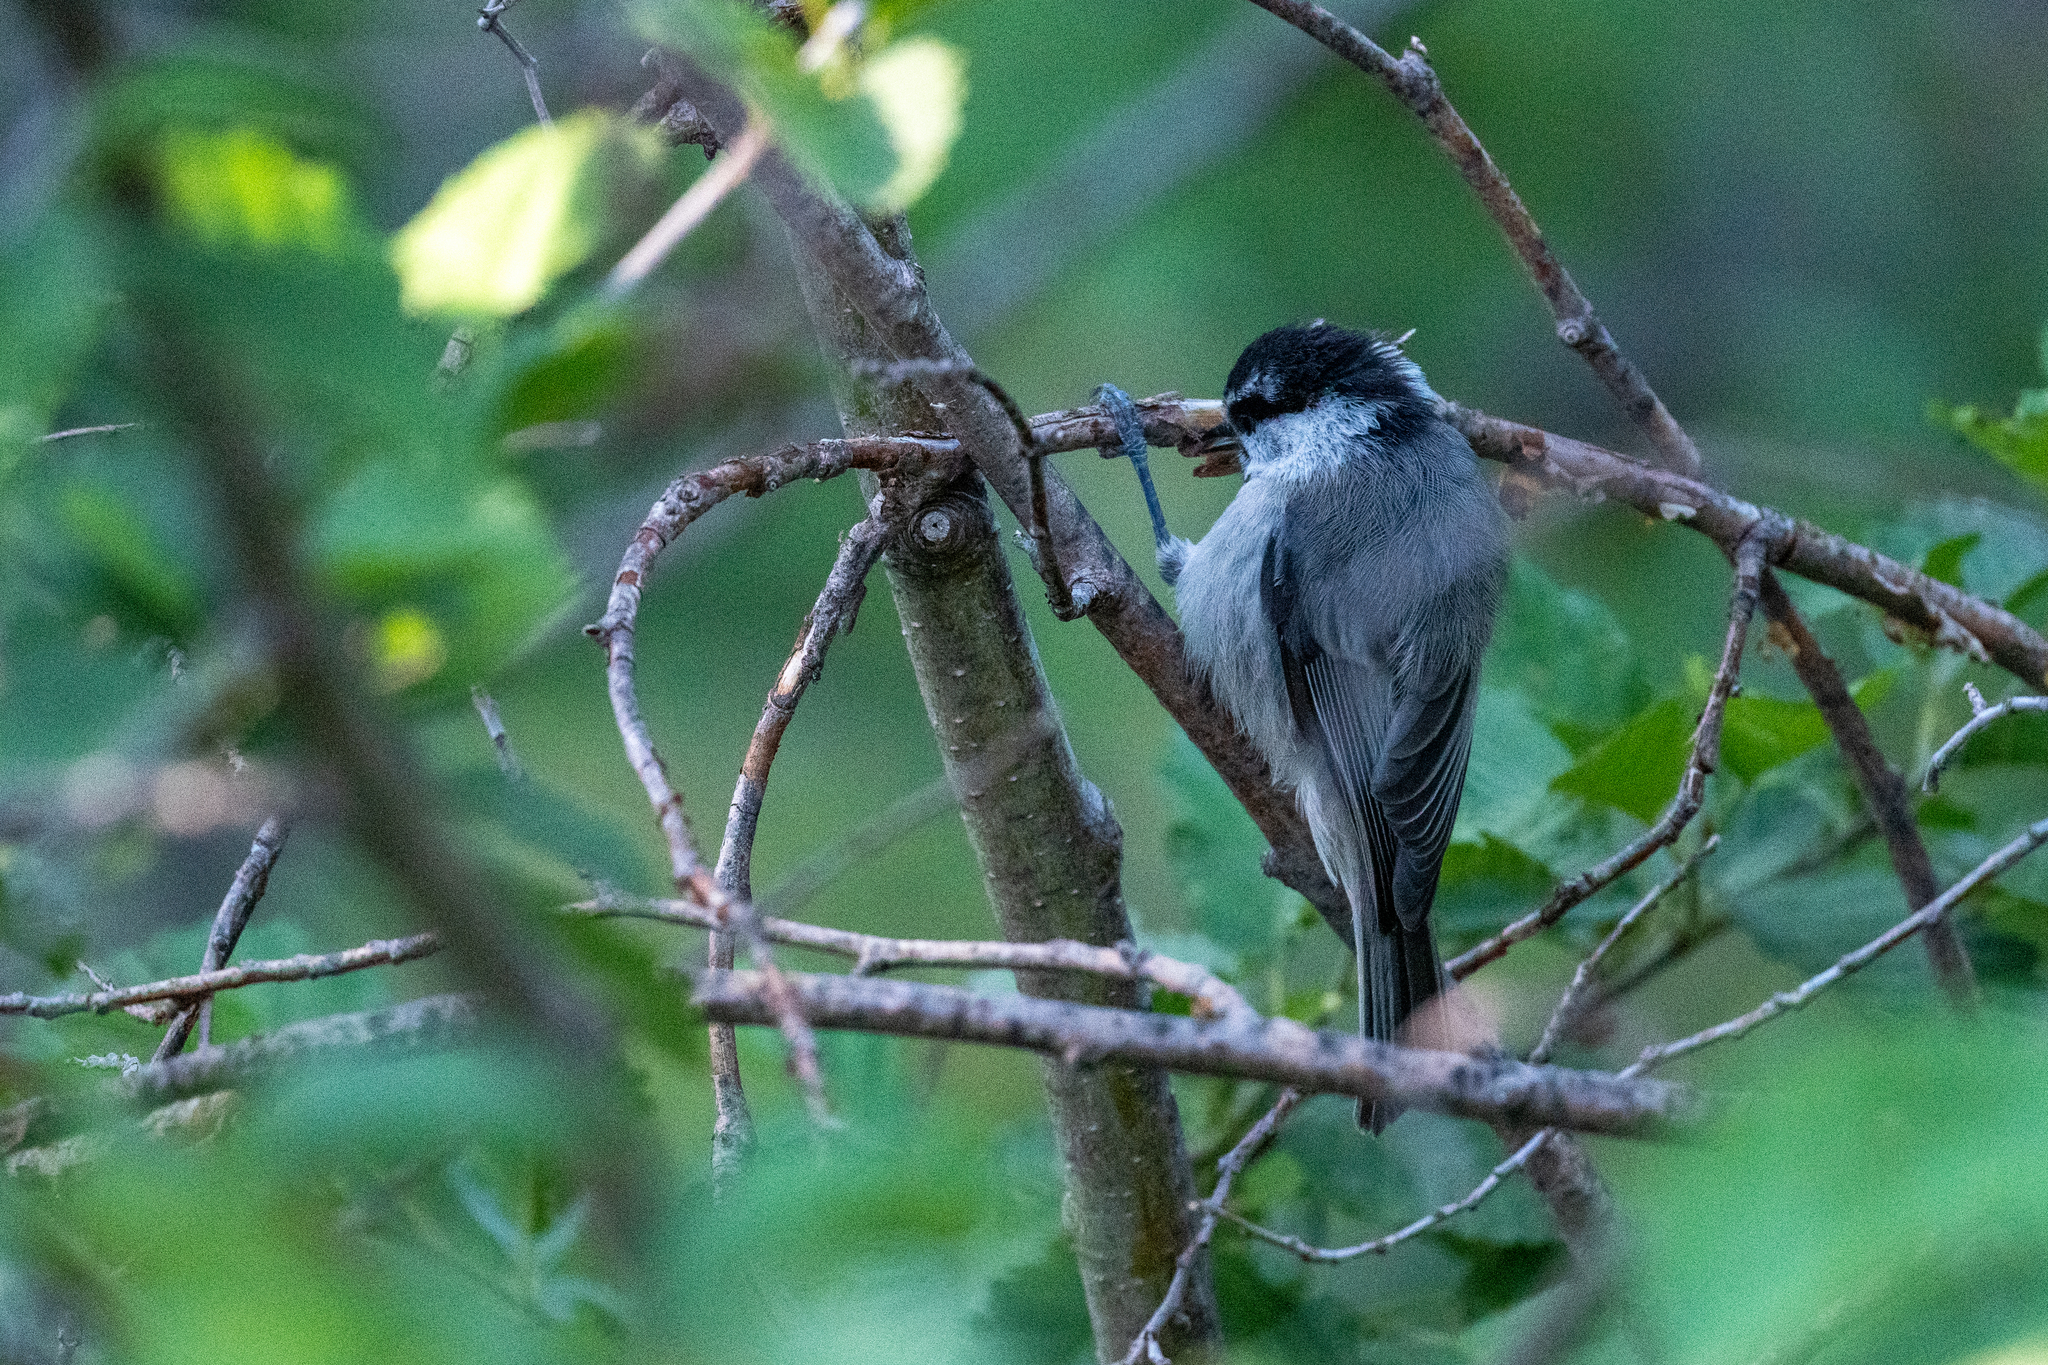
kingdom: Animalia
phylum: Chordata
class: Aves
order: Passeriformes
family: Paridae
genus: Poecile
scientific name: Poecile gambeli
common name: Mountain chickadee
